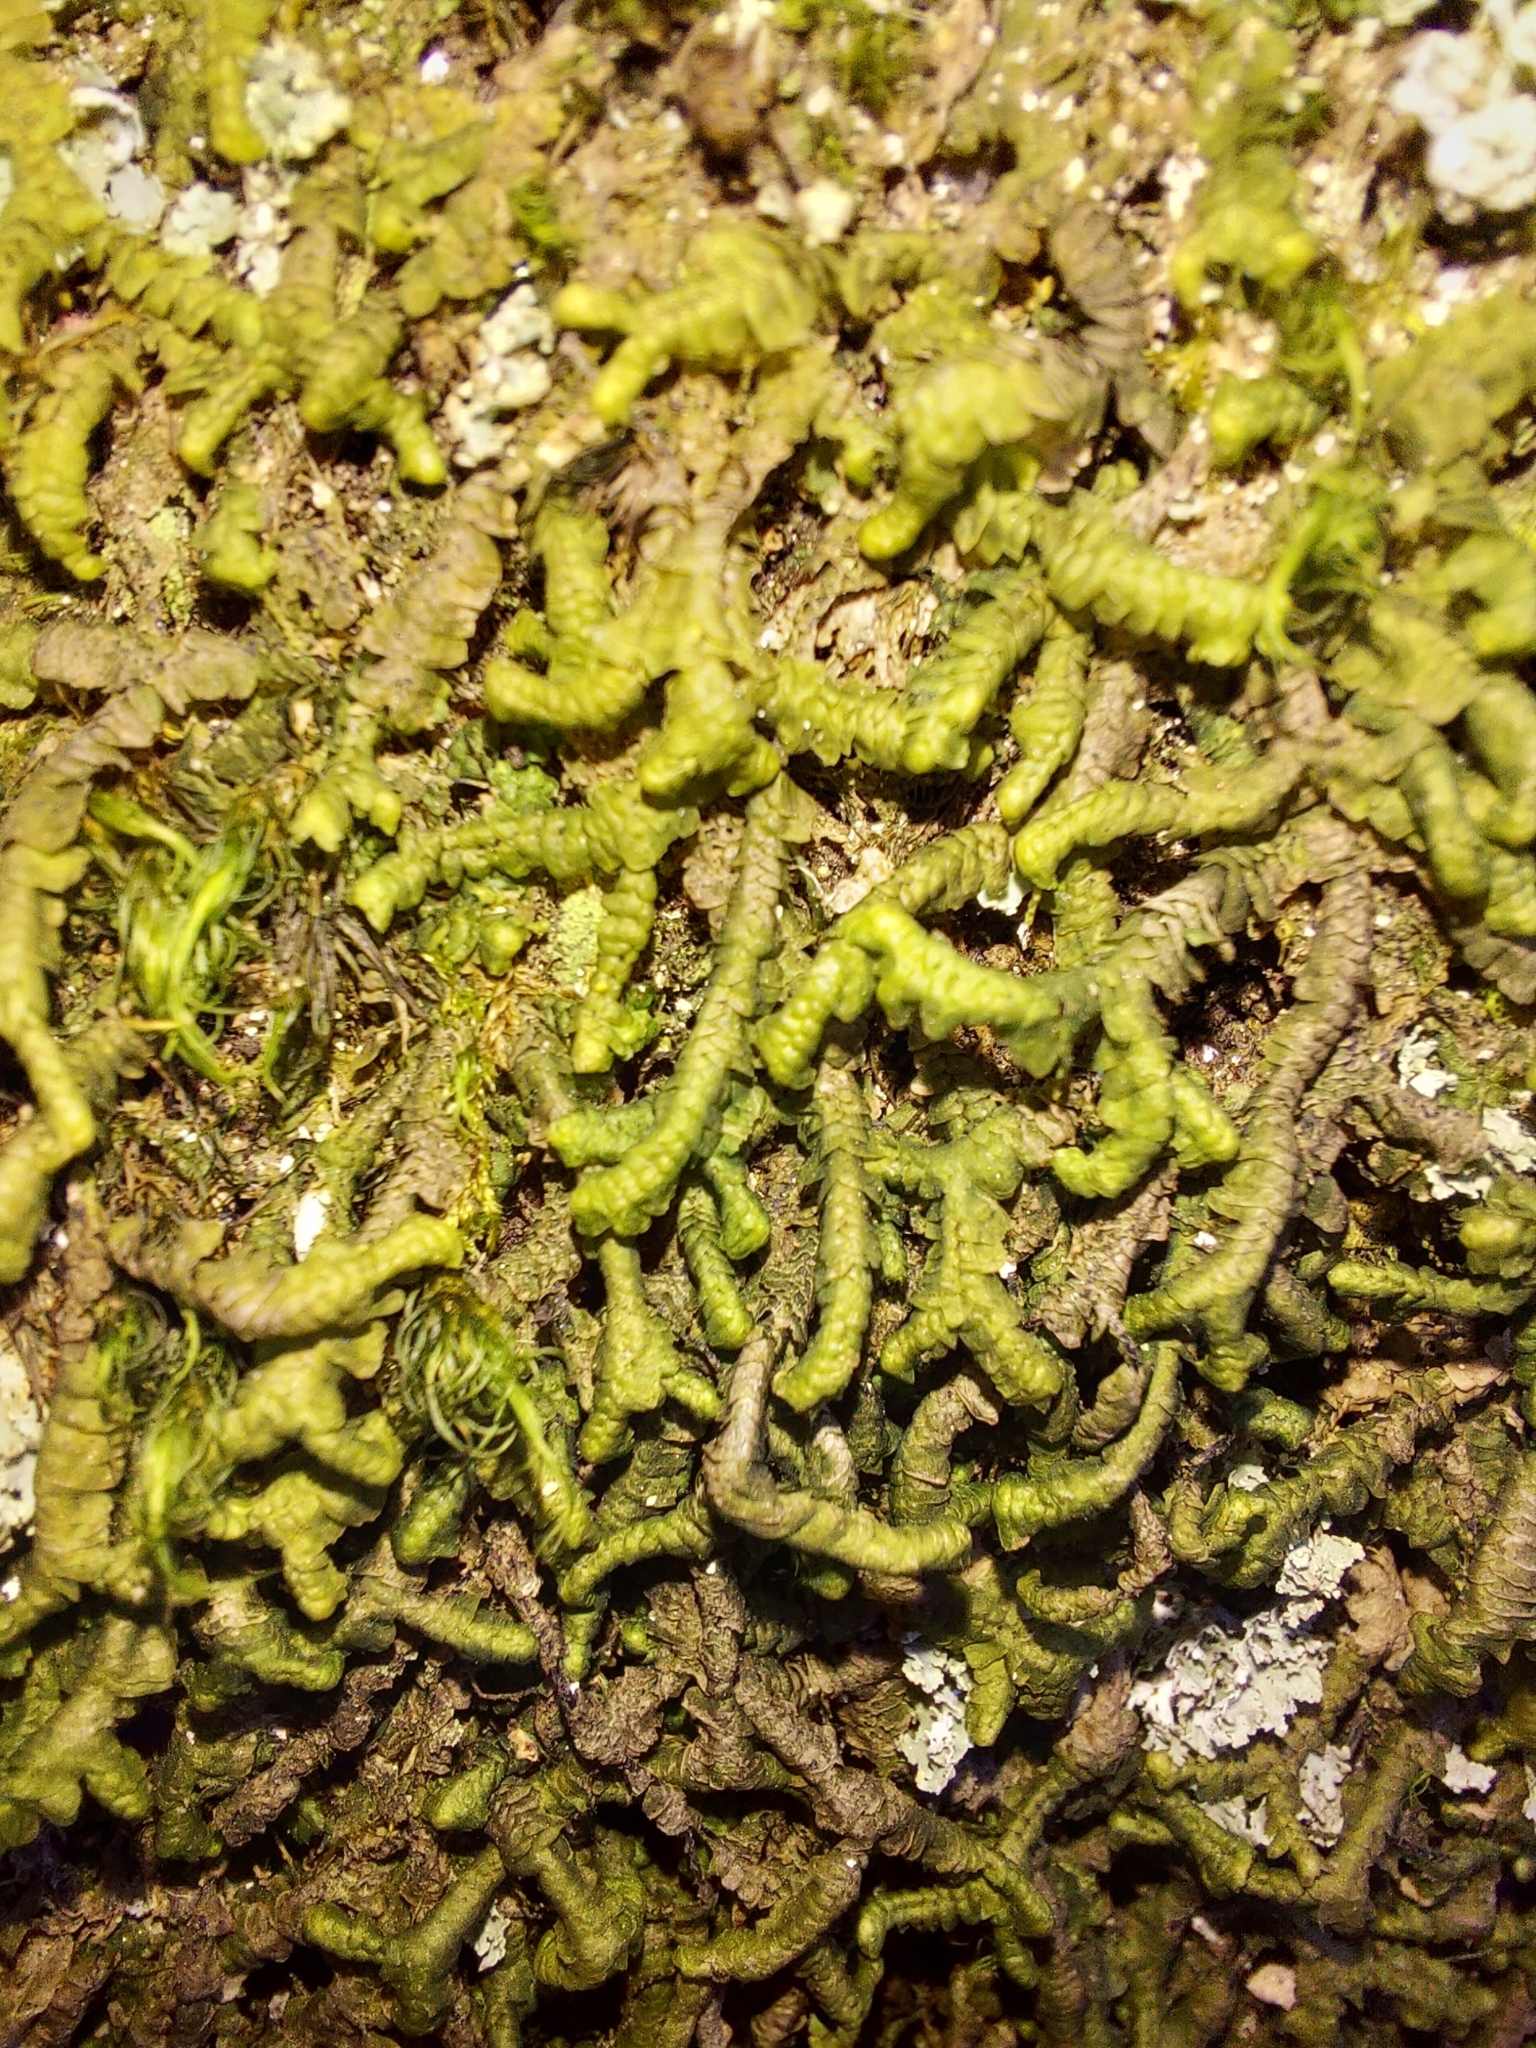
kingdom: Plantae
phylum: Marchantiophyta
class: Jungermanniopsida
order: Jungermanniales
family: Lepidoziaceae
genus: Bazzania
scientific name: Bazzania trilobata
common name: Three-lobed whipwort
